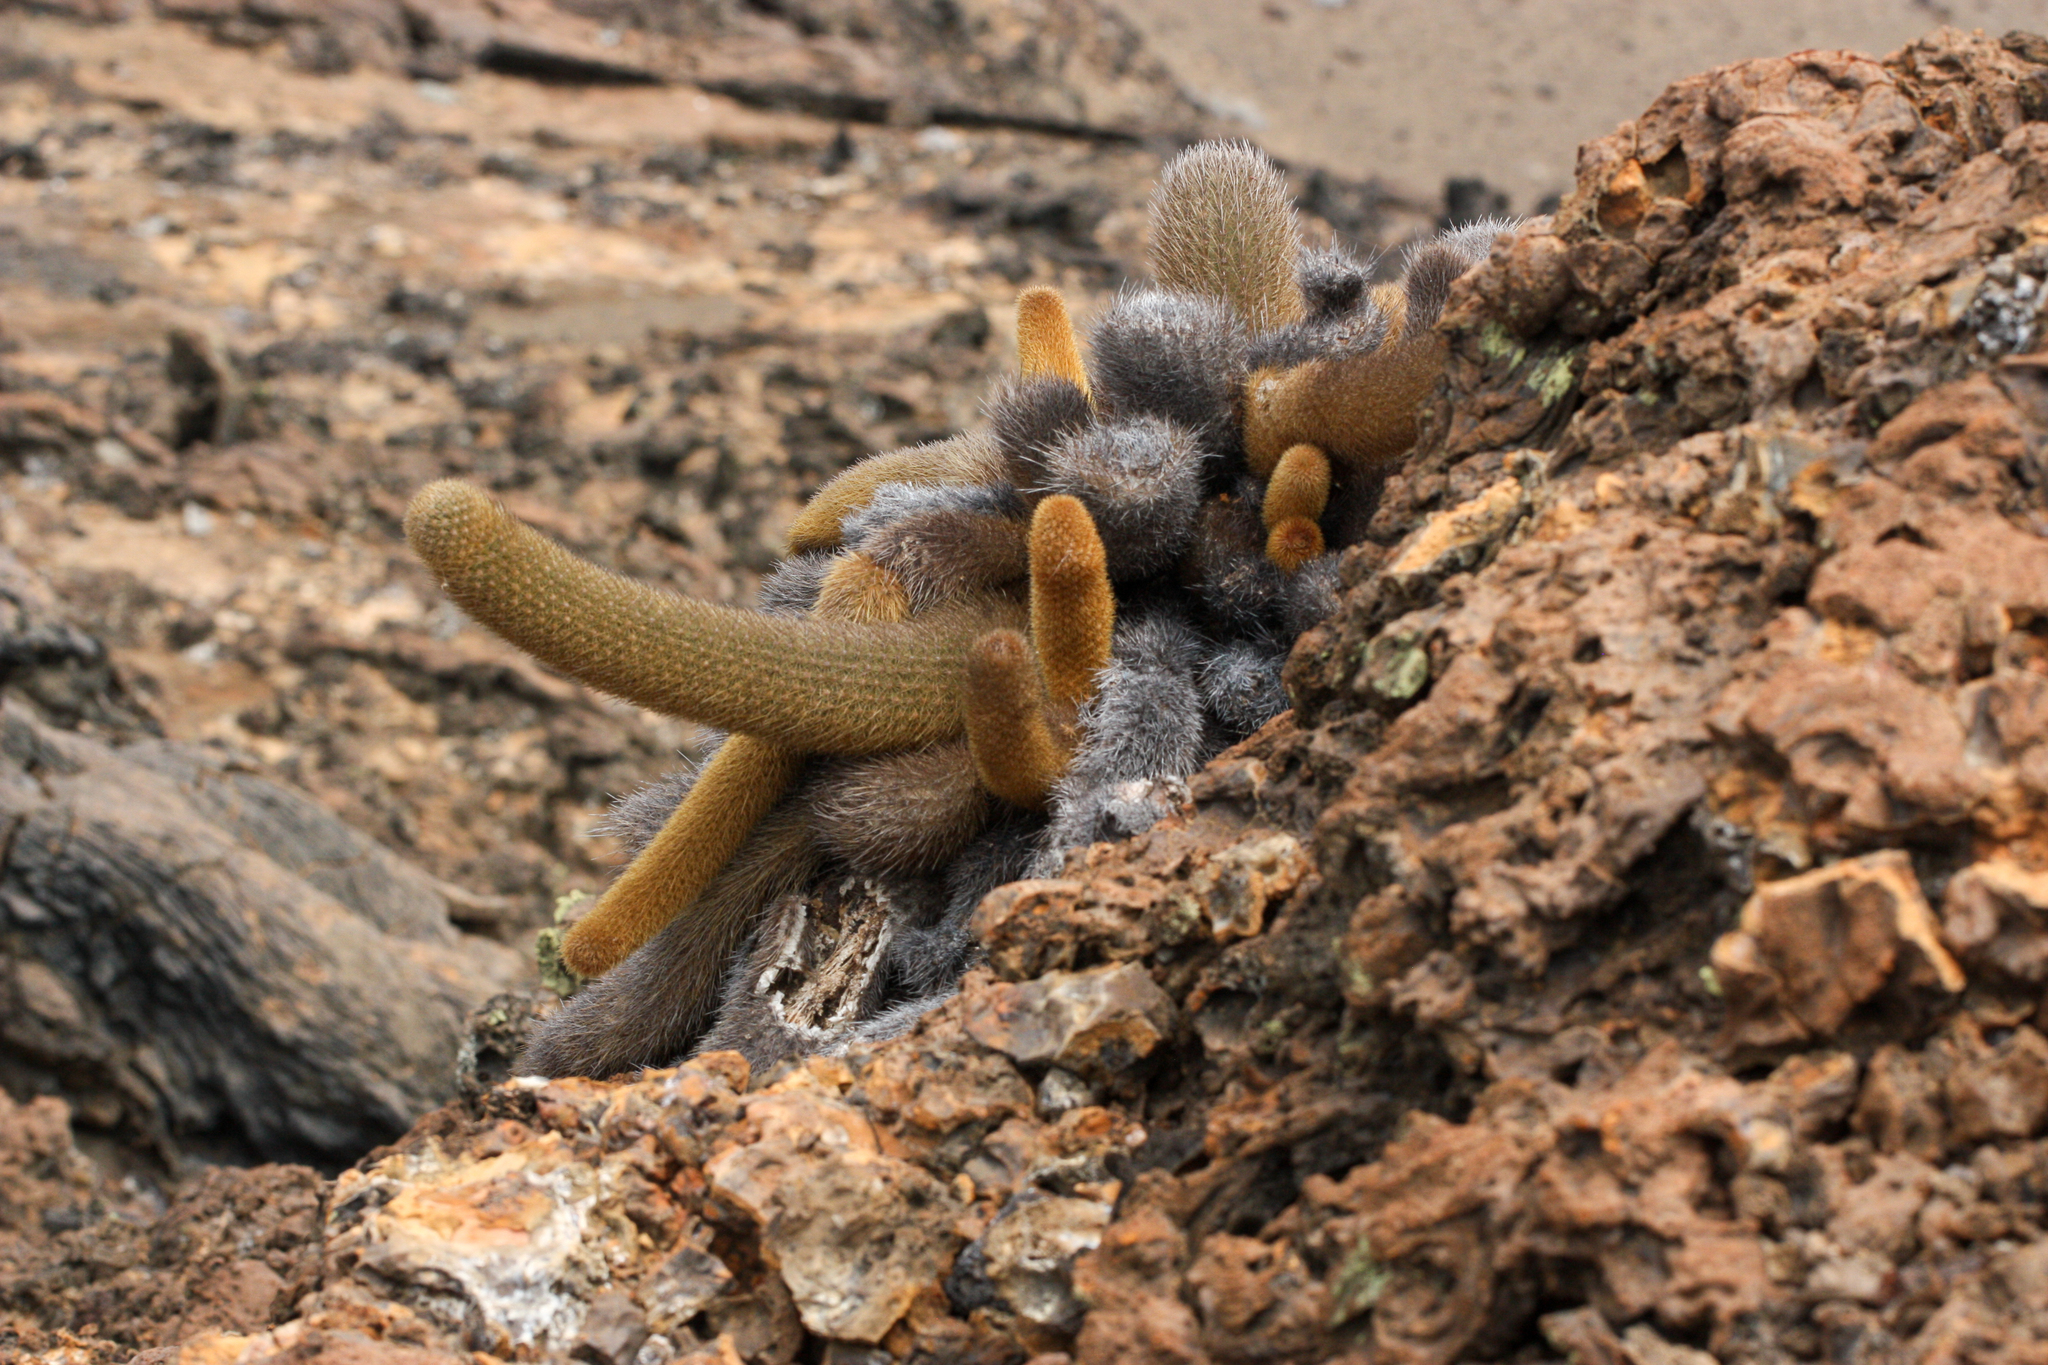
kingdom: Plantae
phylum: Tracheophyta
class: Magnoliopsida
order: Caryophyllales
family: Cactaceae
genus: Brachycereus
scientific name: Brachycereus nesioticus
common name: Lava cactus
